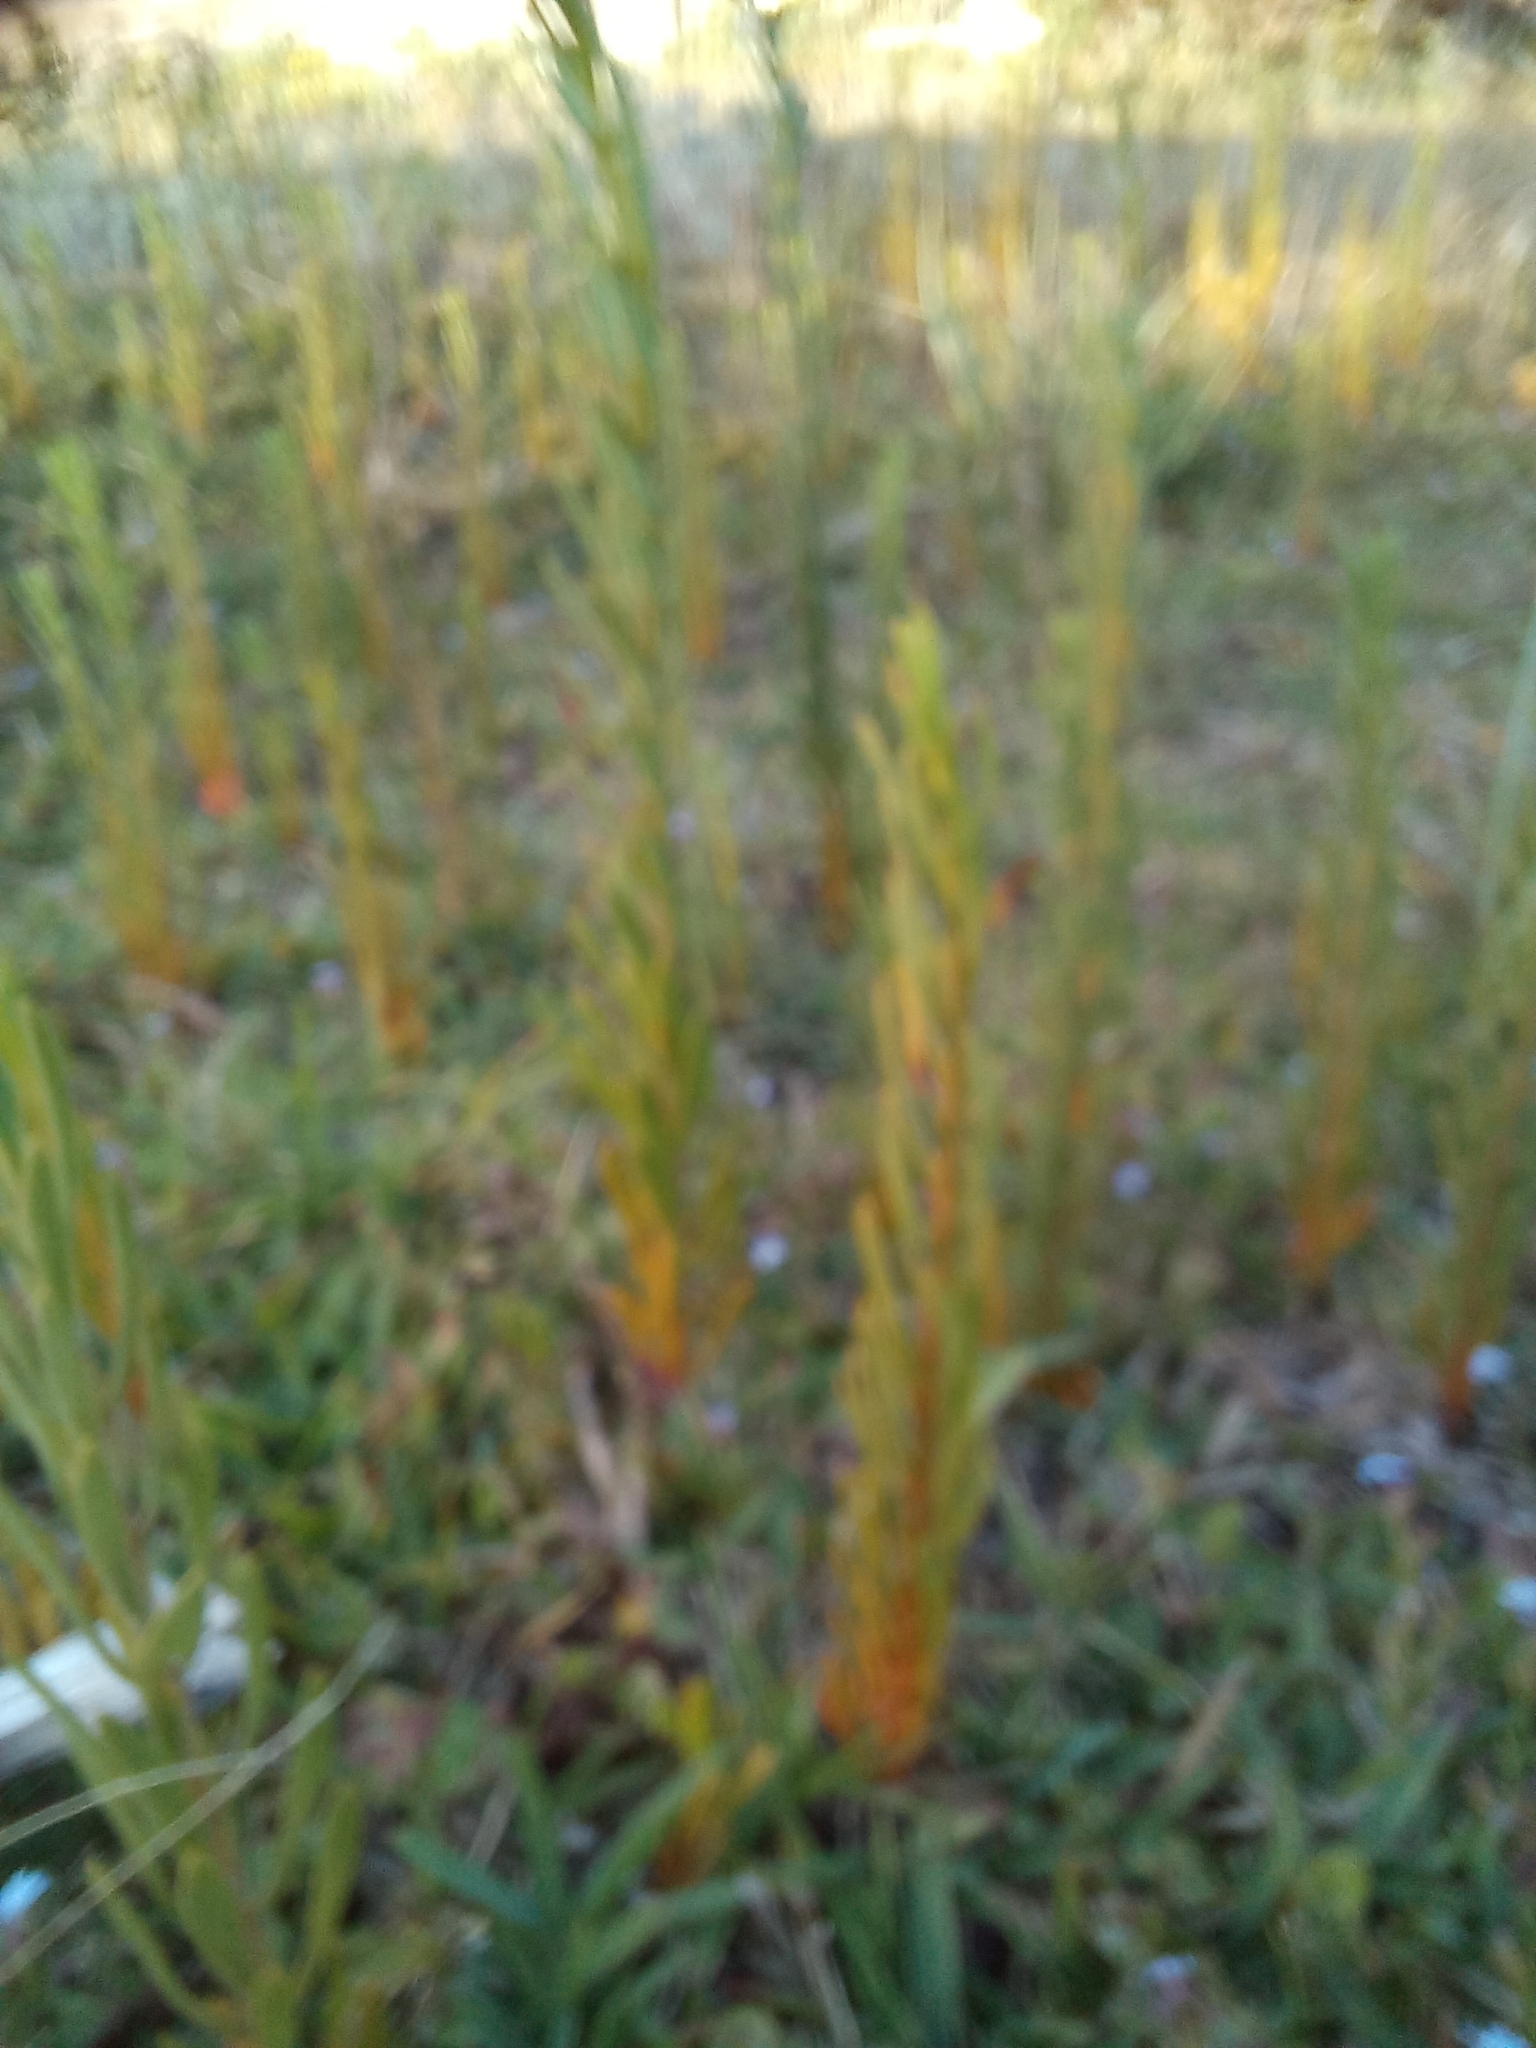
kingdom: Plantae
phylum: Tracheophyta
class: Magnoliopsida
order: Gentianales
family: Gentianaceae
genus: Orphium
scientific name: Orphium frutescens
